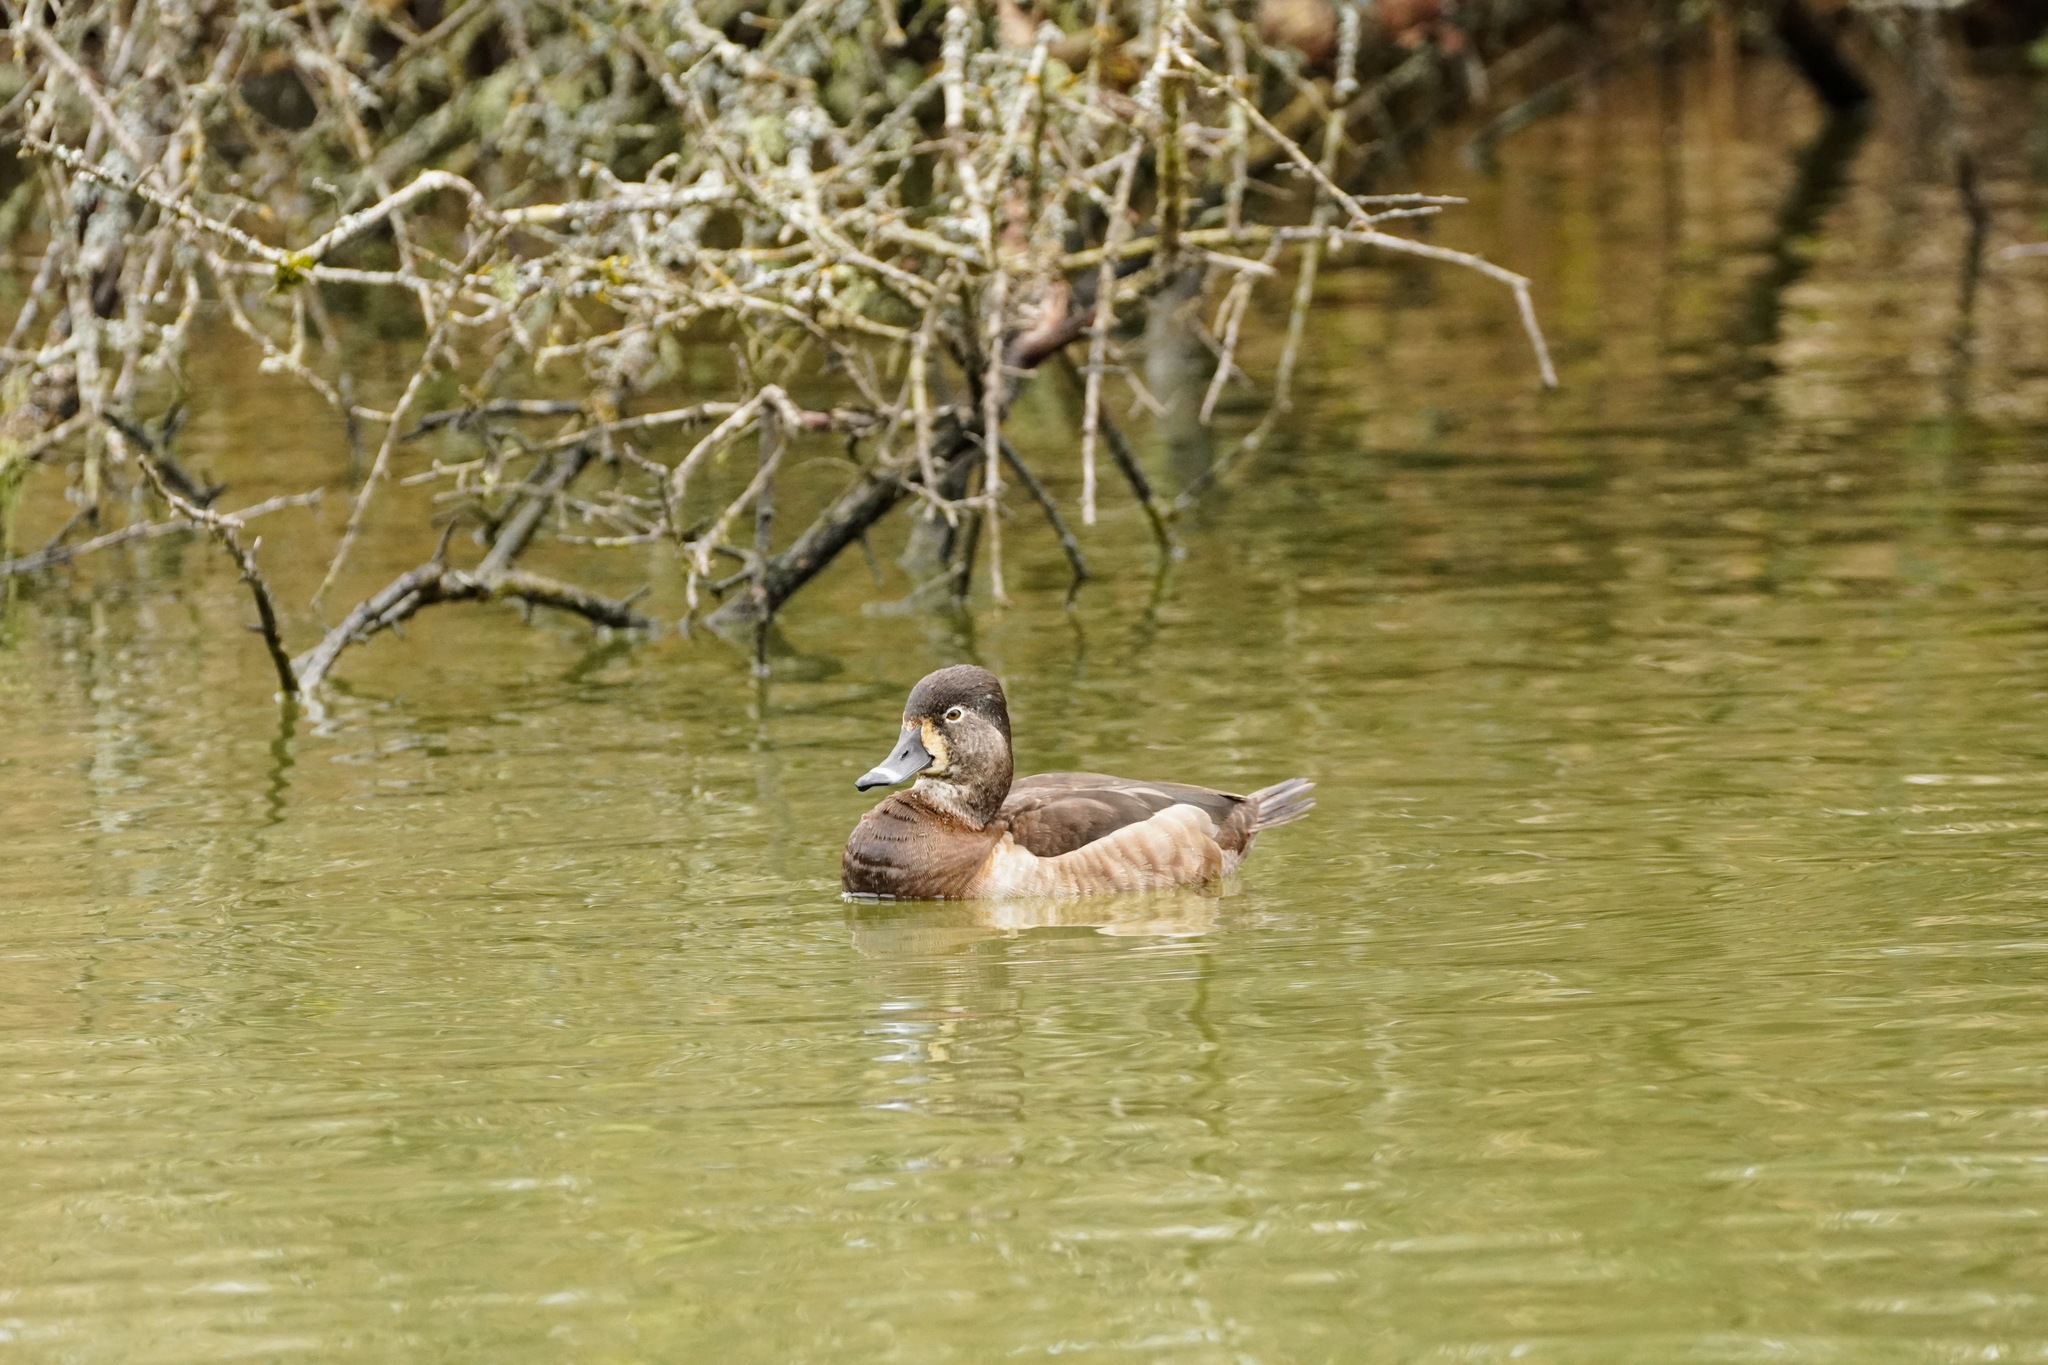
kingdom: Animalia
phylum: Chordata
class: Aves
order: Anseriformes
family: Anatidae
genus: Aythya
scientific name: Aythya collaris
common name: Ring-necked duck
